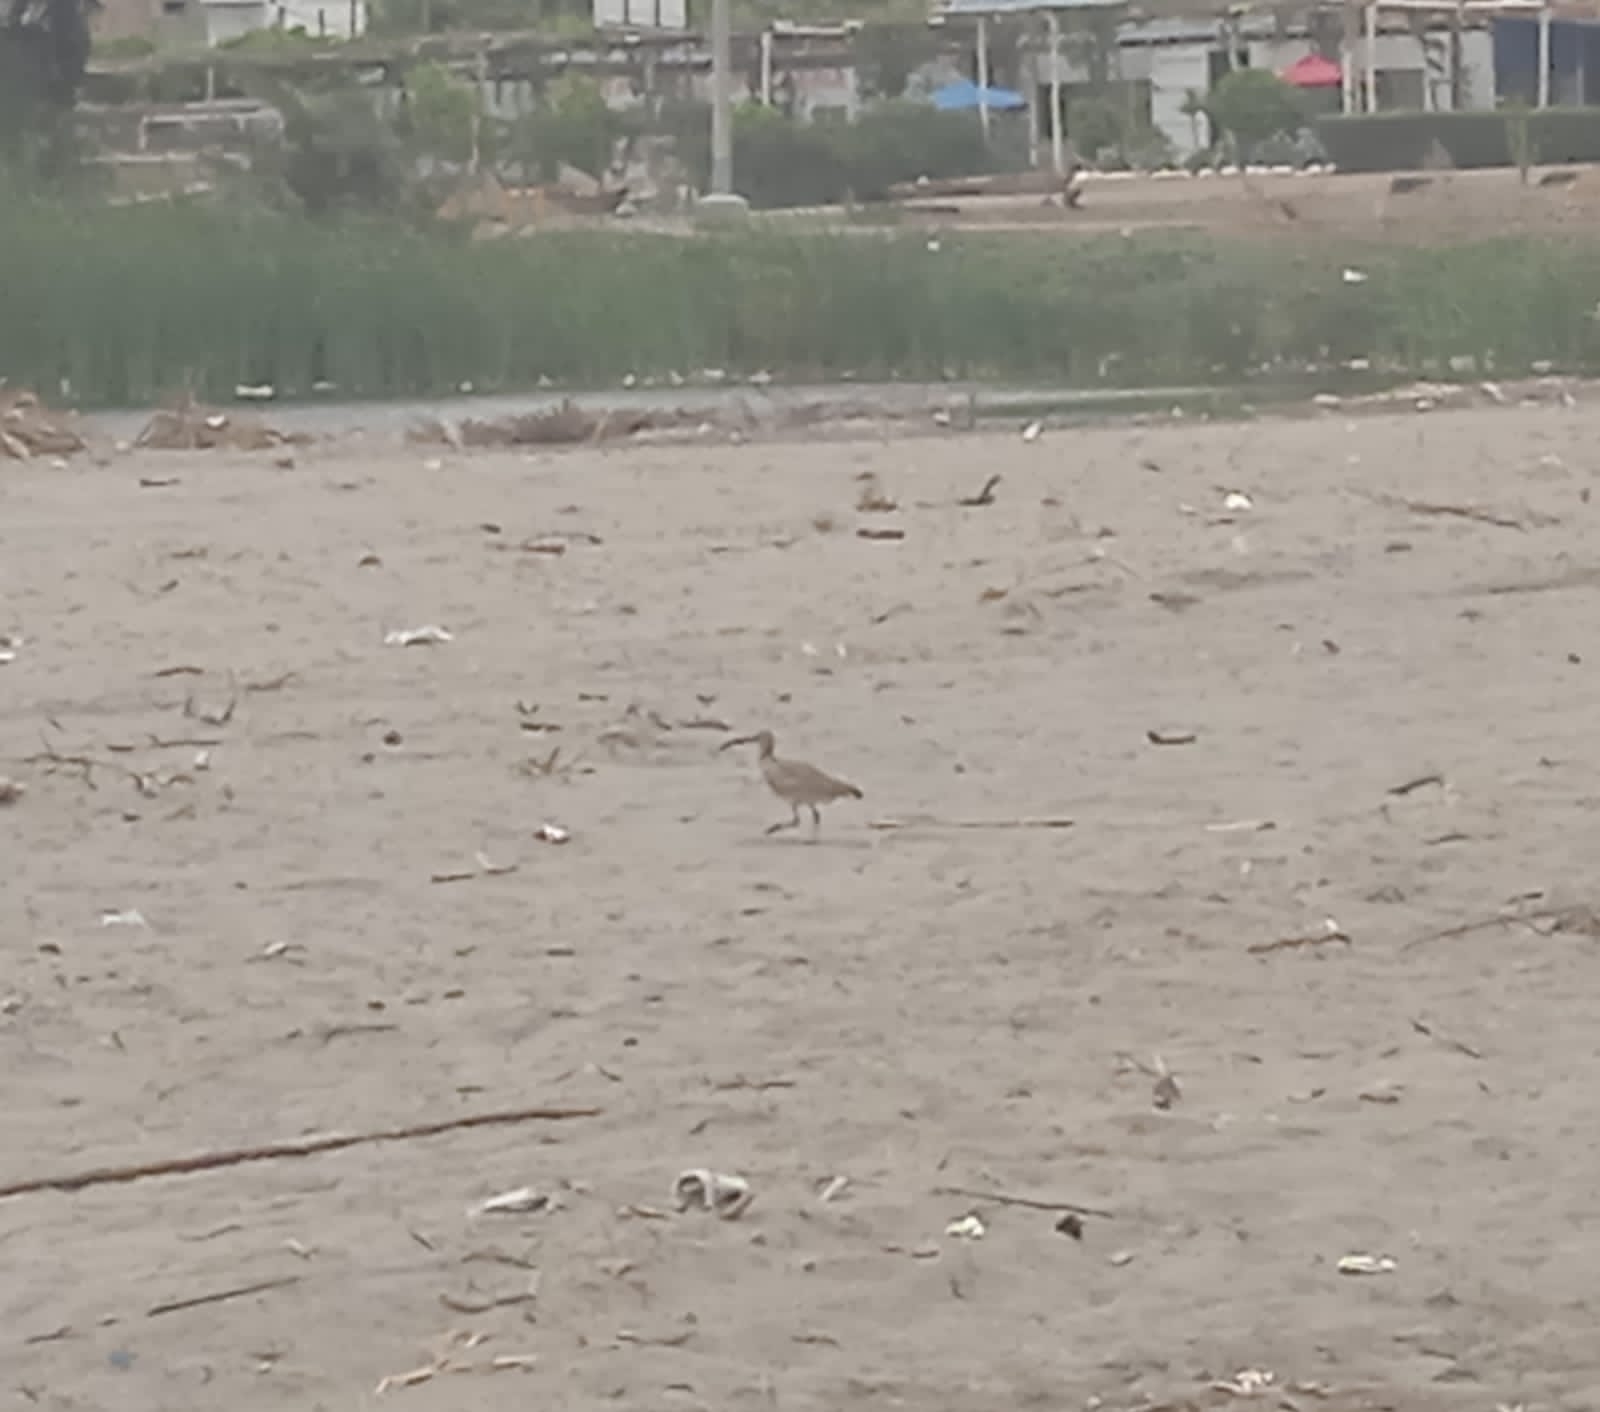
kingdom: Animalia
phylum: Chordata
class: Aves
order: Charadriiformes
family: Scolopacidae
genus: Numenius
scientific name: Numenius phaeopus
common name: Whimbrel
